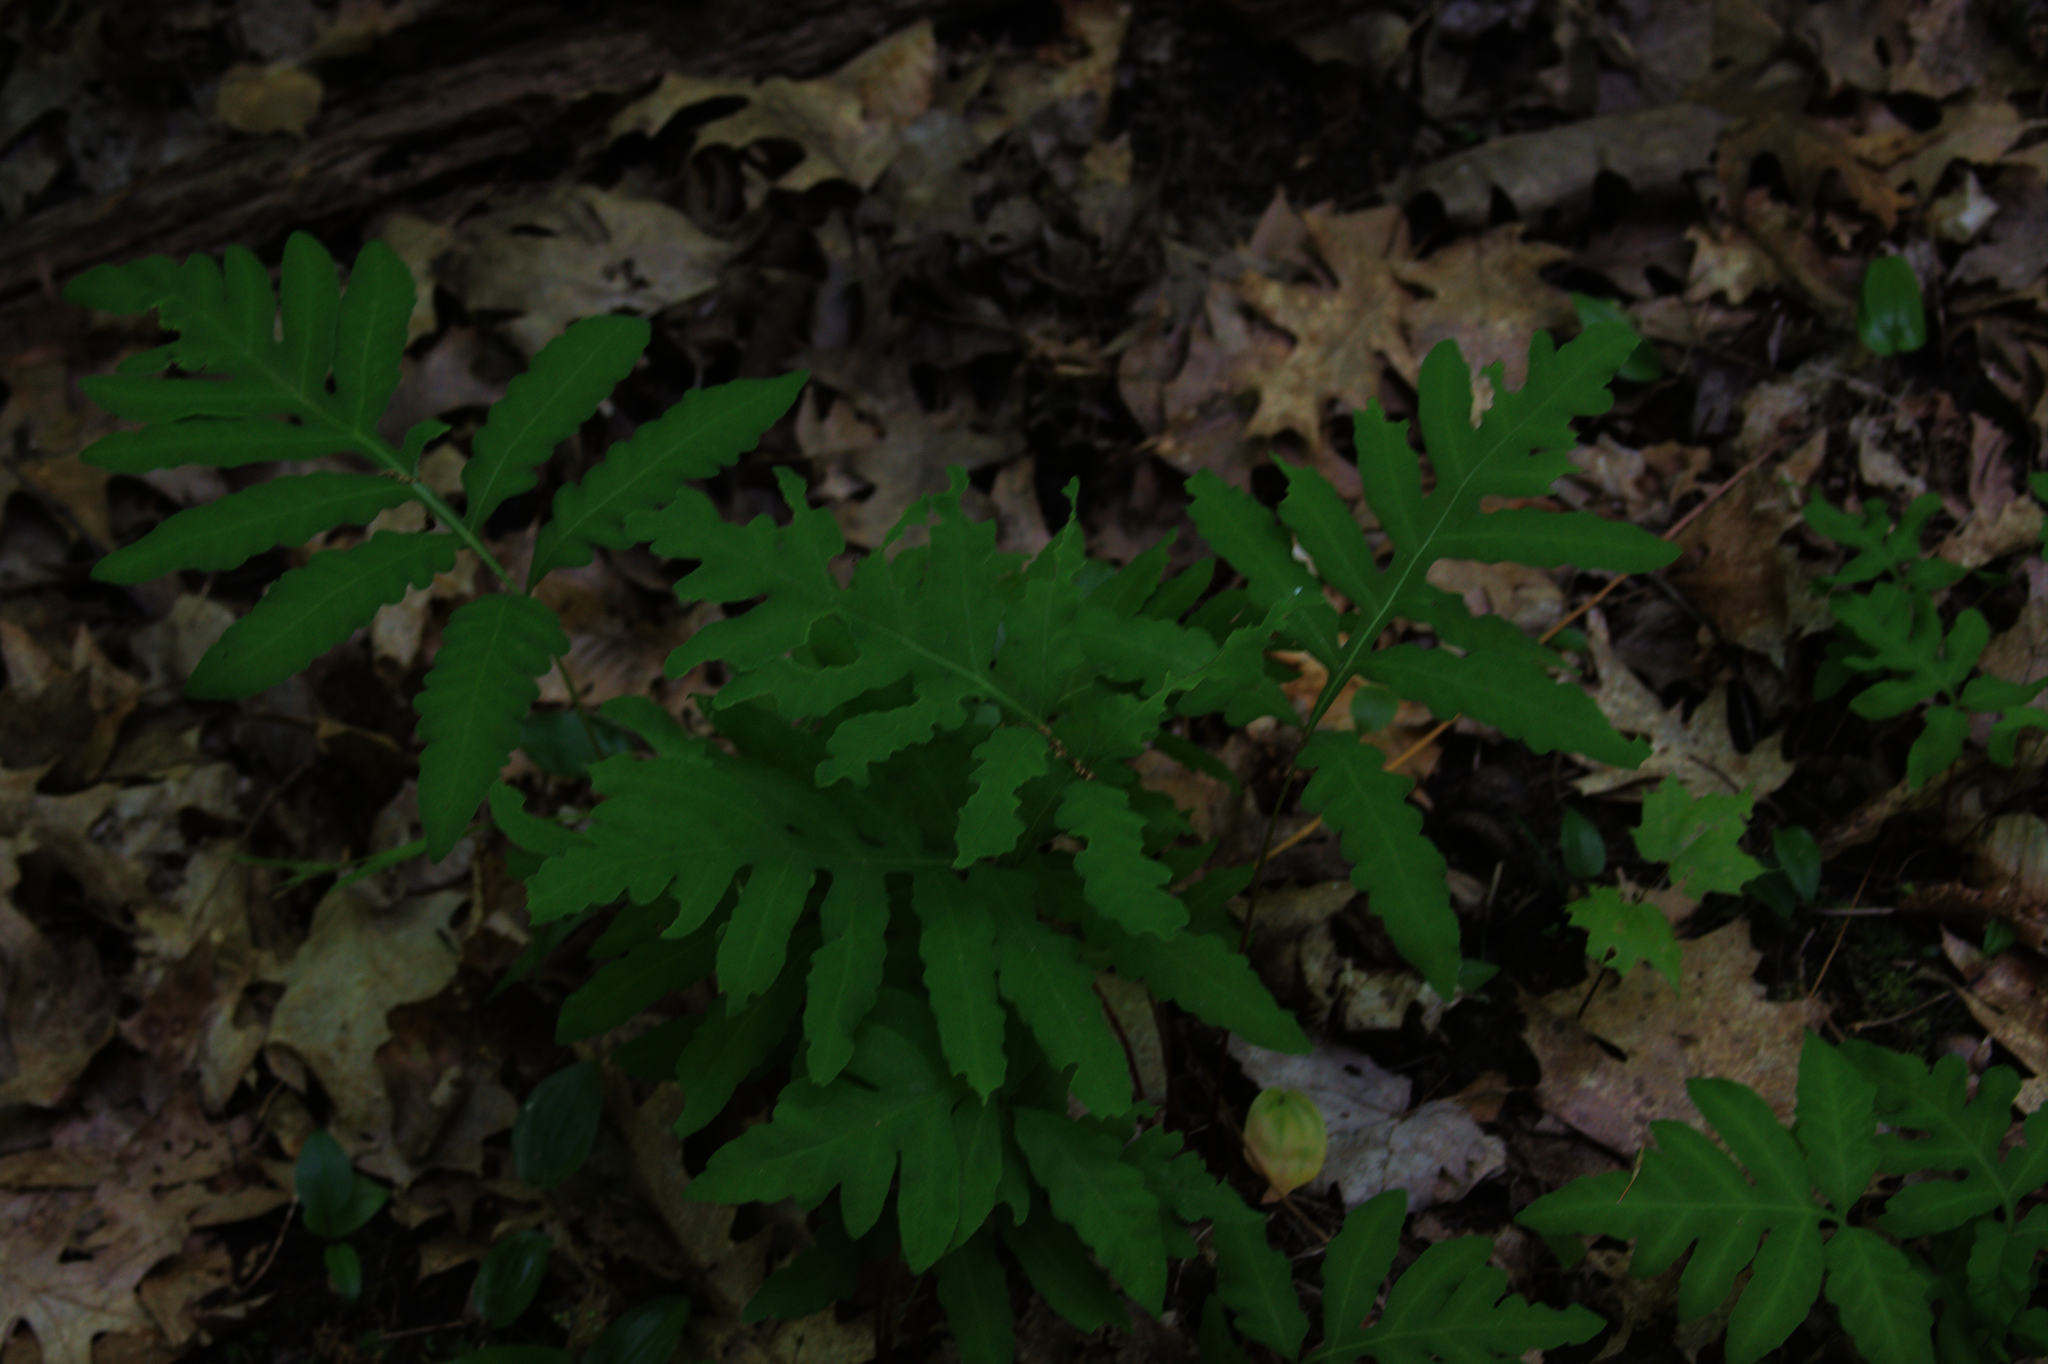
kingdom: Plantae
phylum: Tracheophyta
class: Polypodiopsida
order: Polypodiales
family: Onocleaceae
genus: Onoclea
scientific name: Onoclea sensibilis
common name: Sensitive fern
